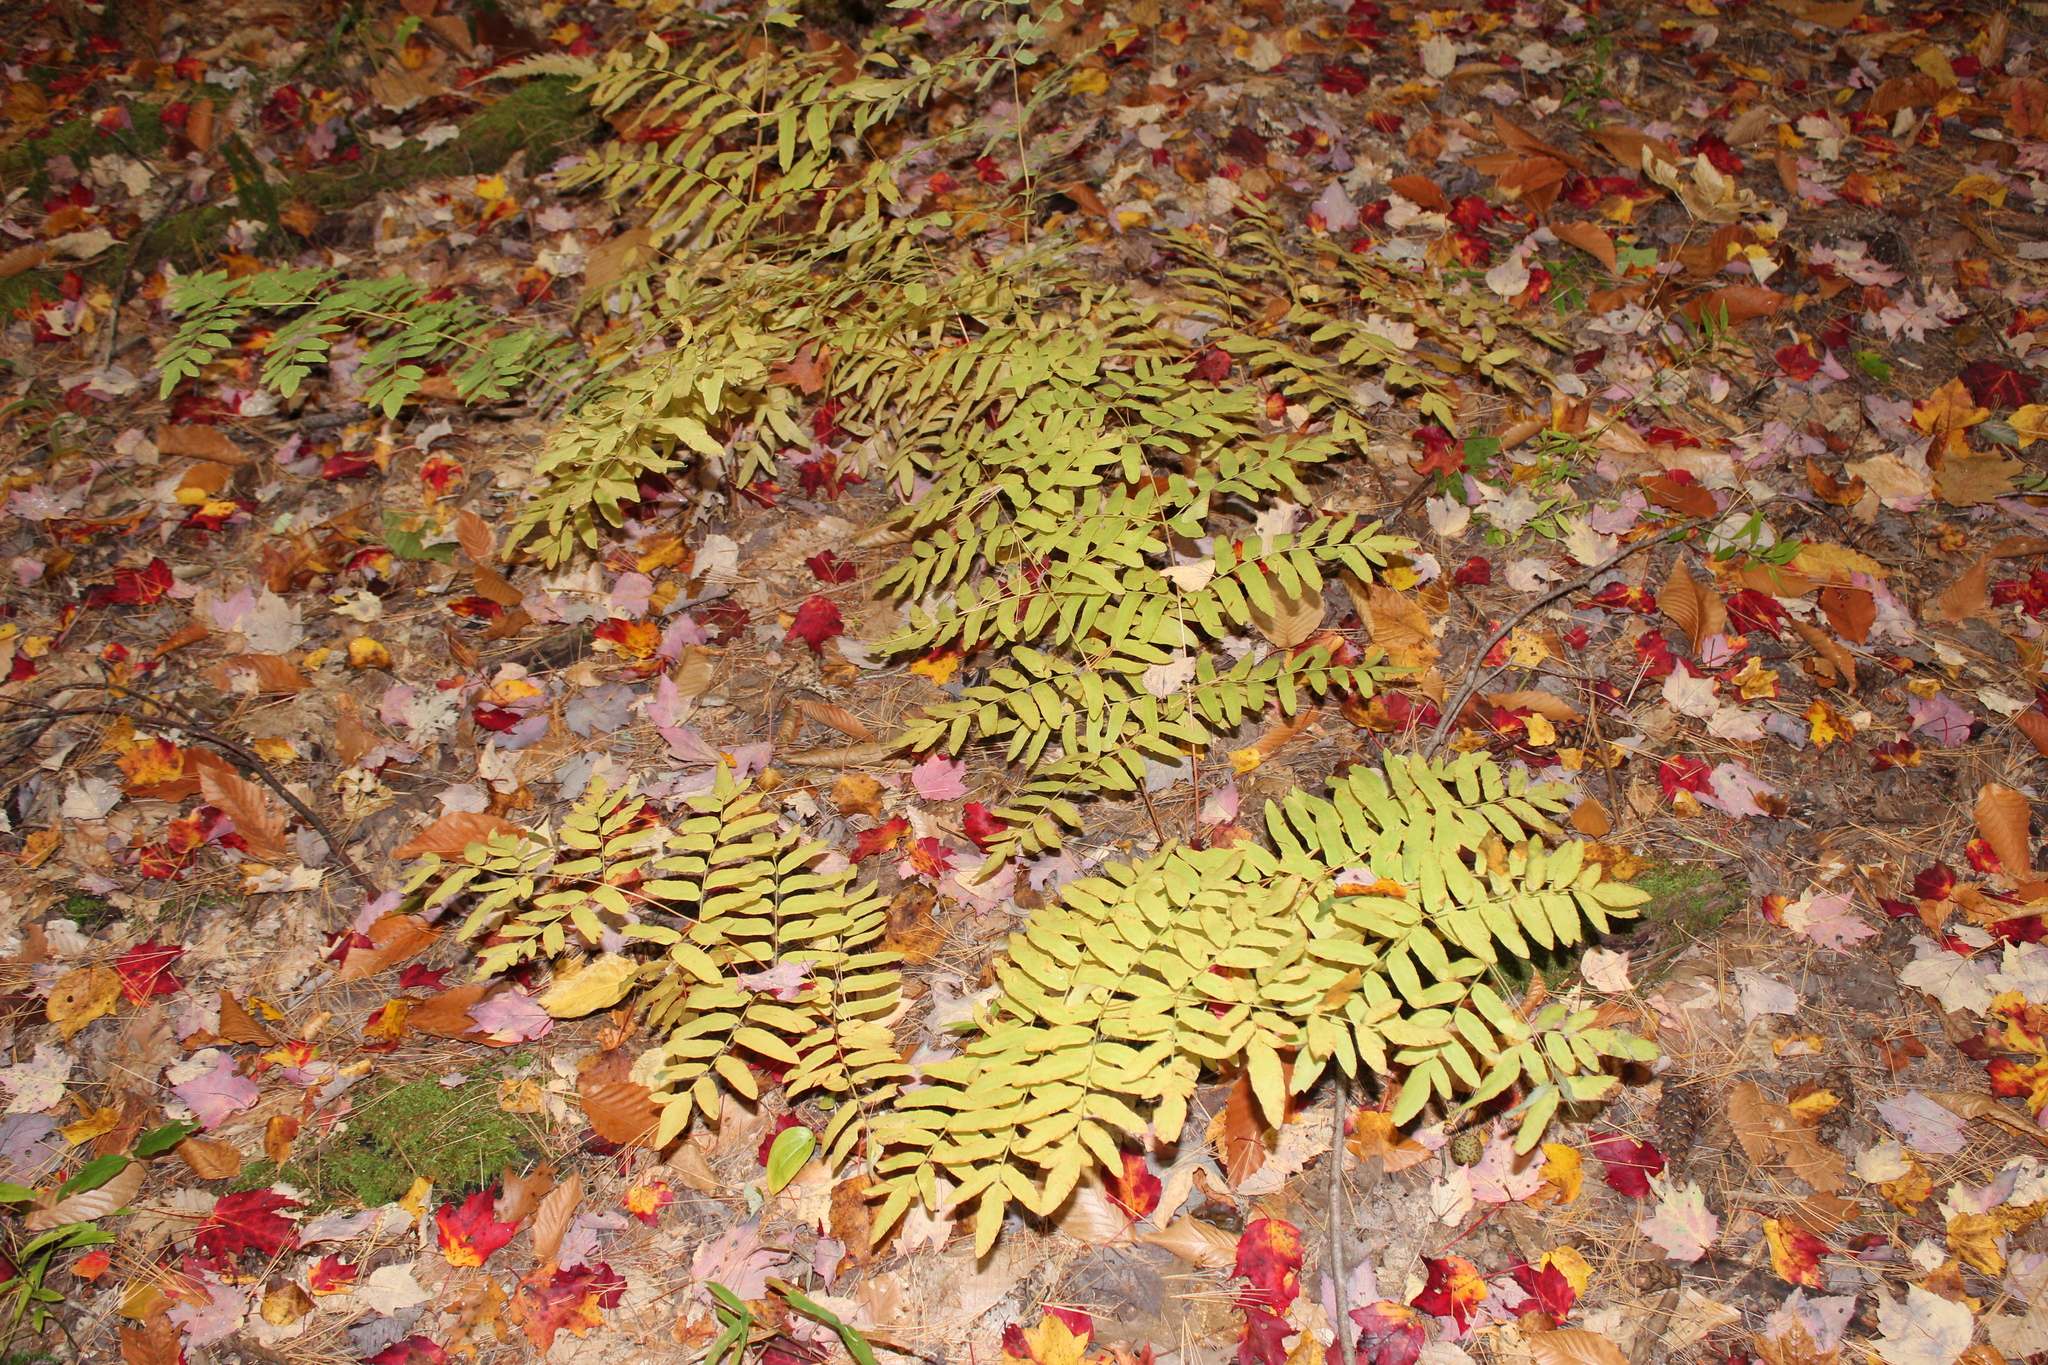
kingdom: Plantae
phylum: Tracheophyta
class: Polypodiopsida
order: Osmundales
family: Osmundaceae
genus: Osmunda
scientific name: Osmunda spectabilis
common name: American royal fern
